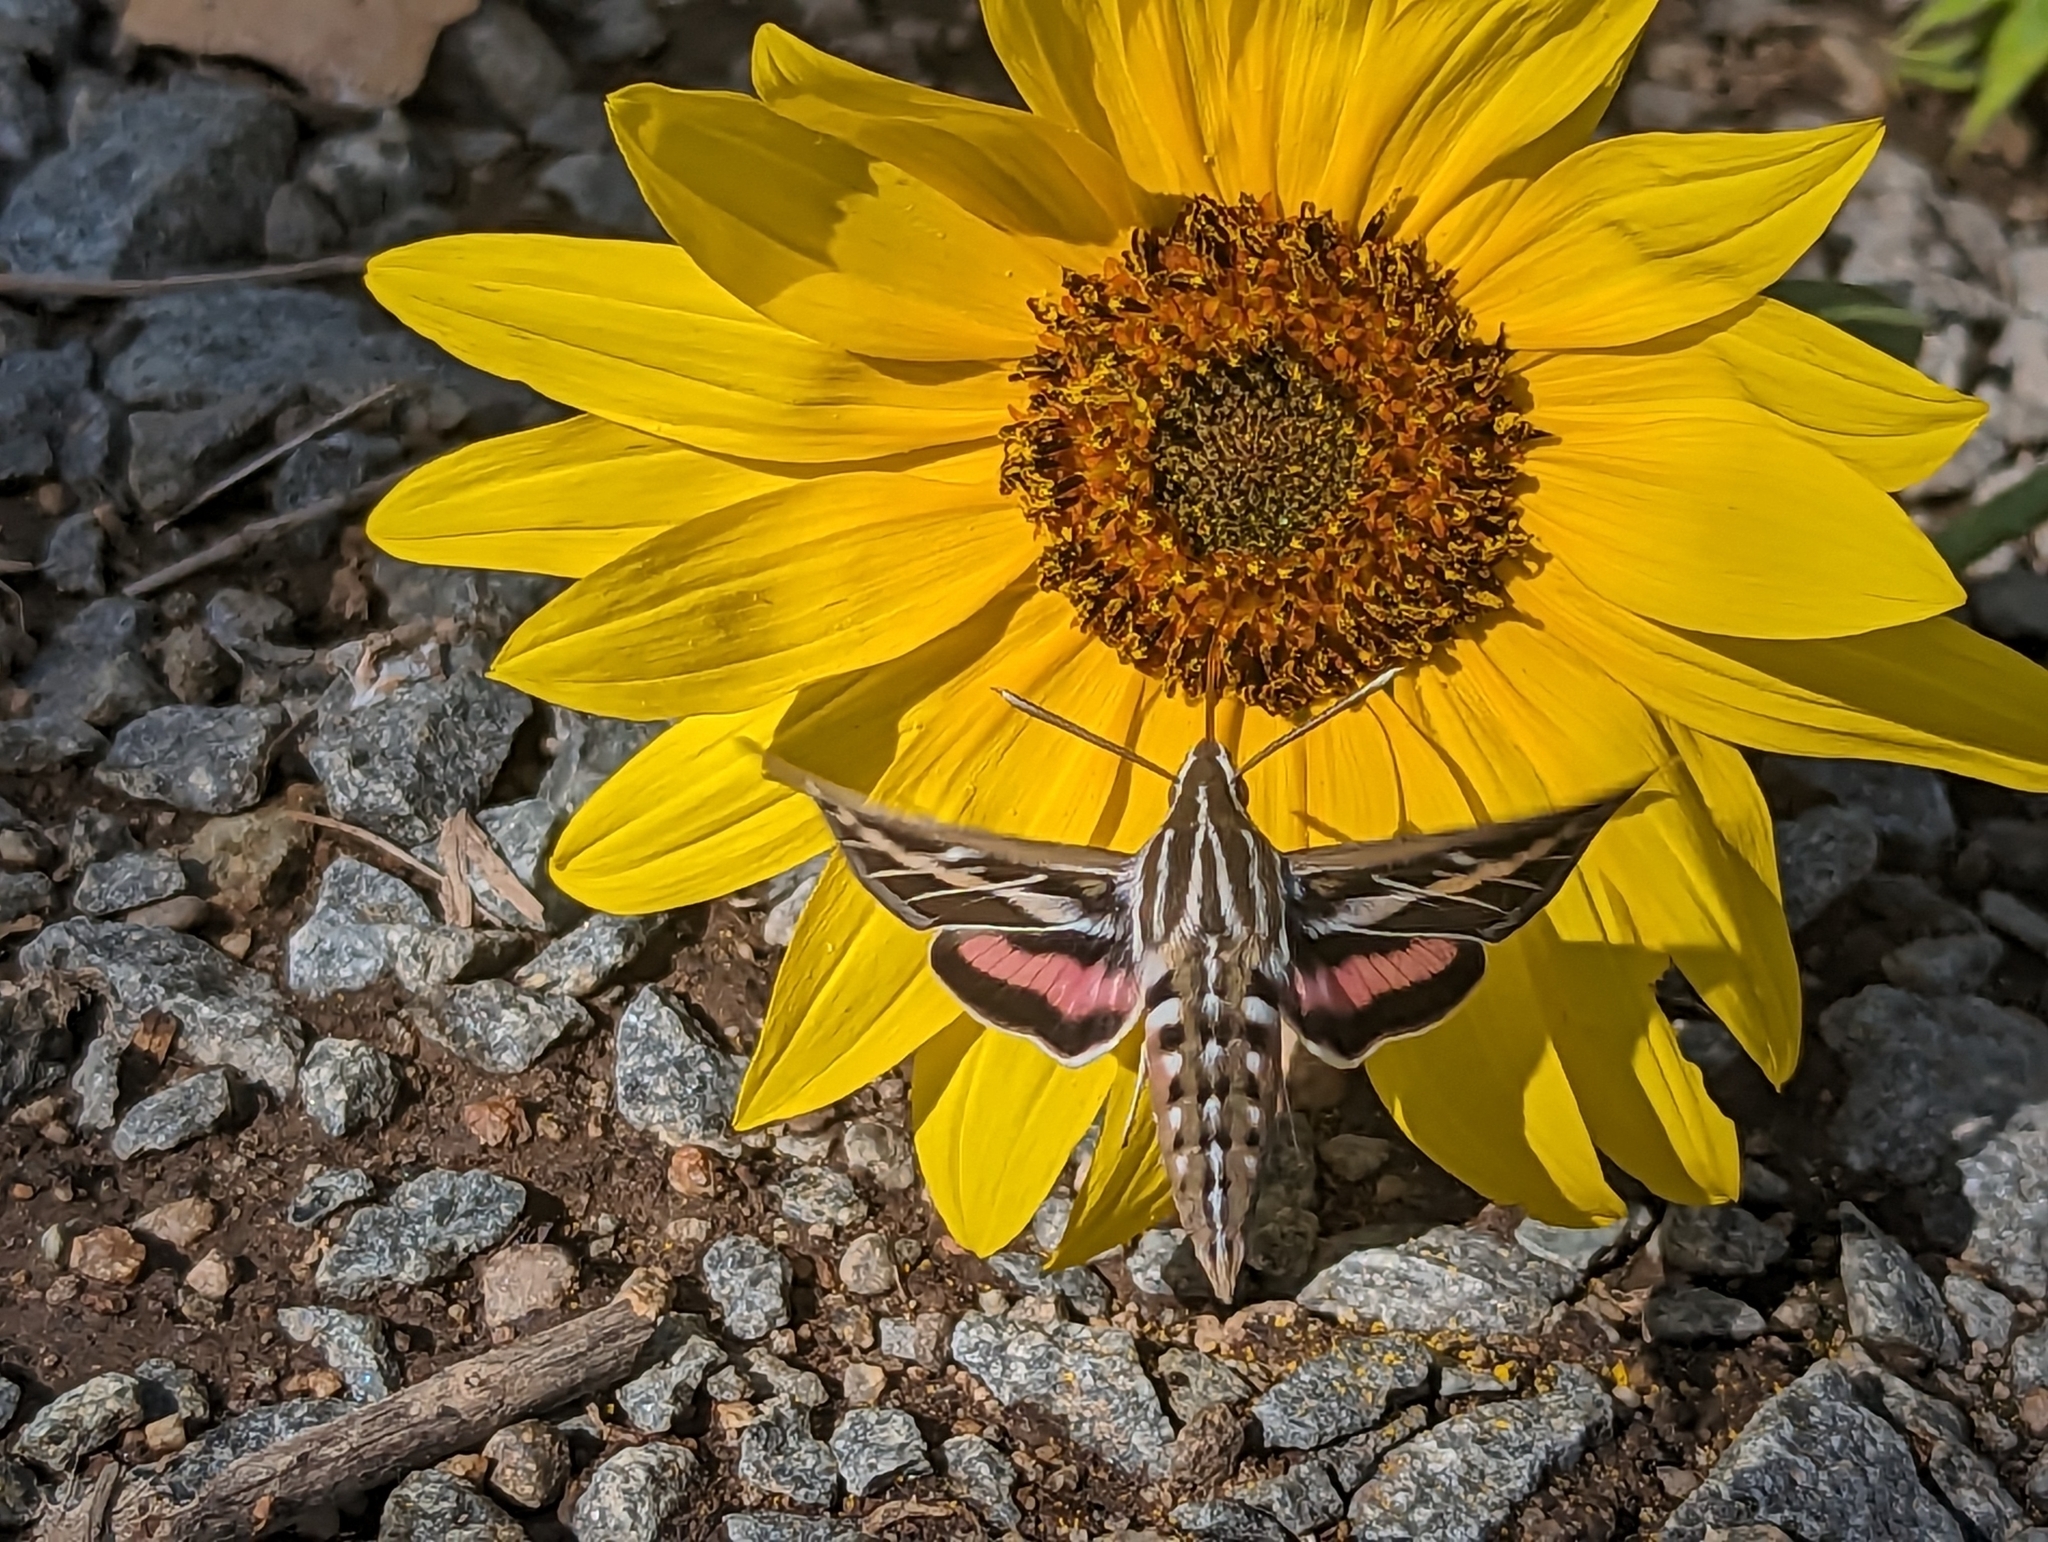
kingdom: Animalia
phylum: Arthropoda
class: Insecta
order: Lepidoptera
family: Sphingidae
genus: Hyles
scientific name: Hyles lineata
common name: White-lined sphinx
